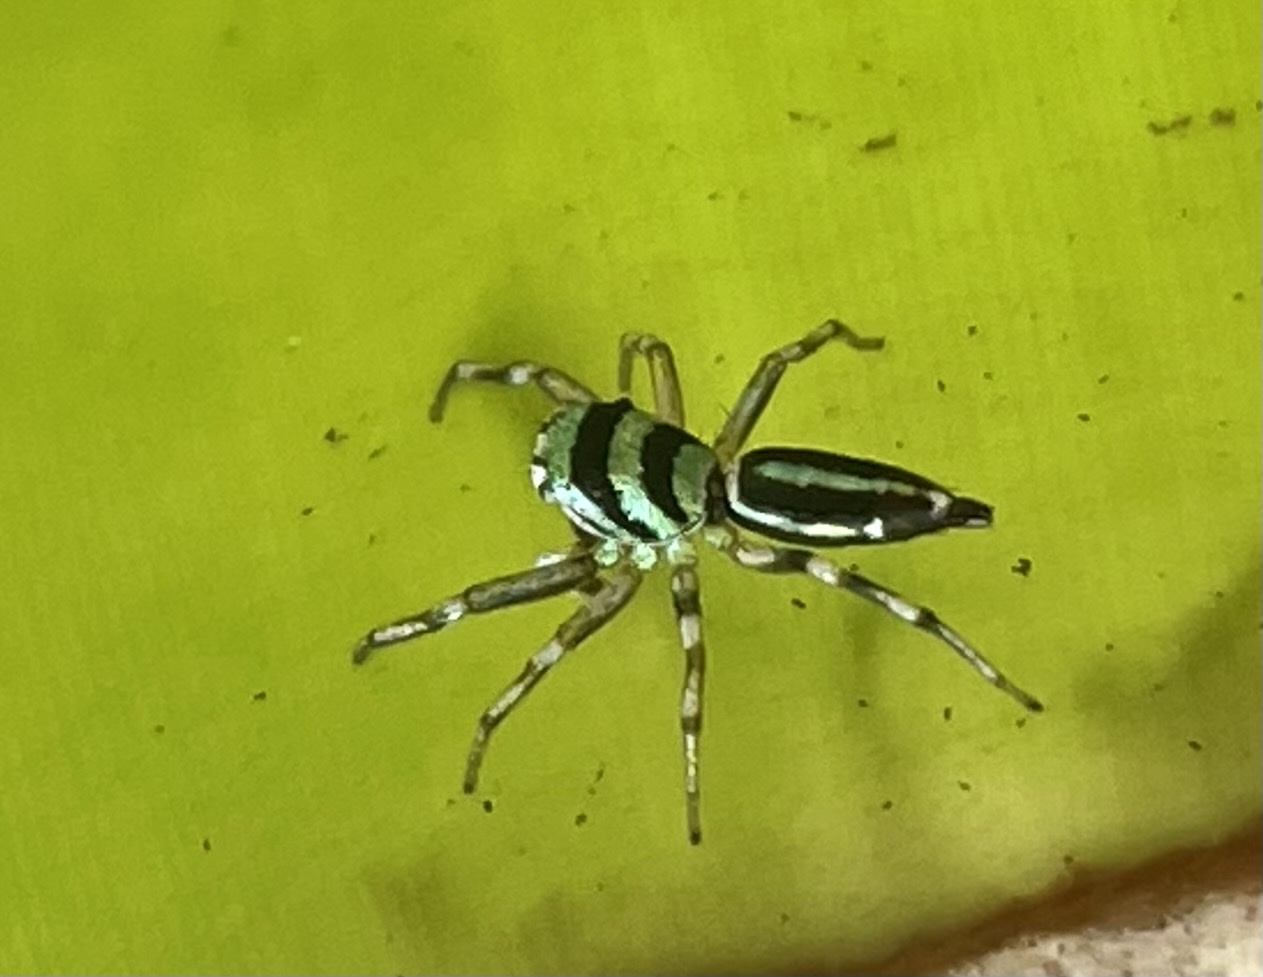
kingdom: Animalia
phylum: Arthropoda
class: Arachnida
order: Araneae
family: Salticidae
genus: Cosmophasis
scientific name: Cosmophasis micarioides
